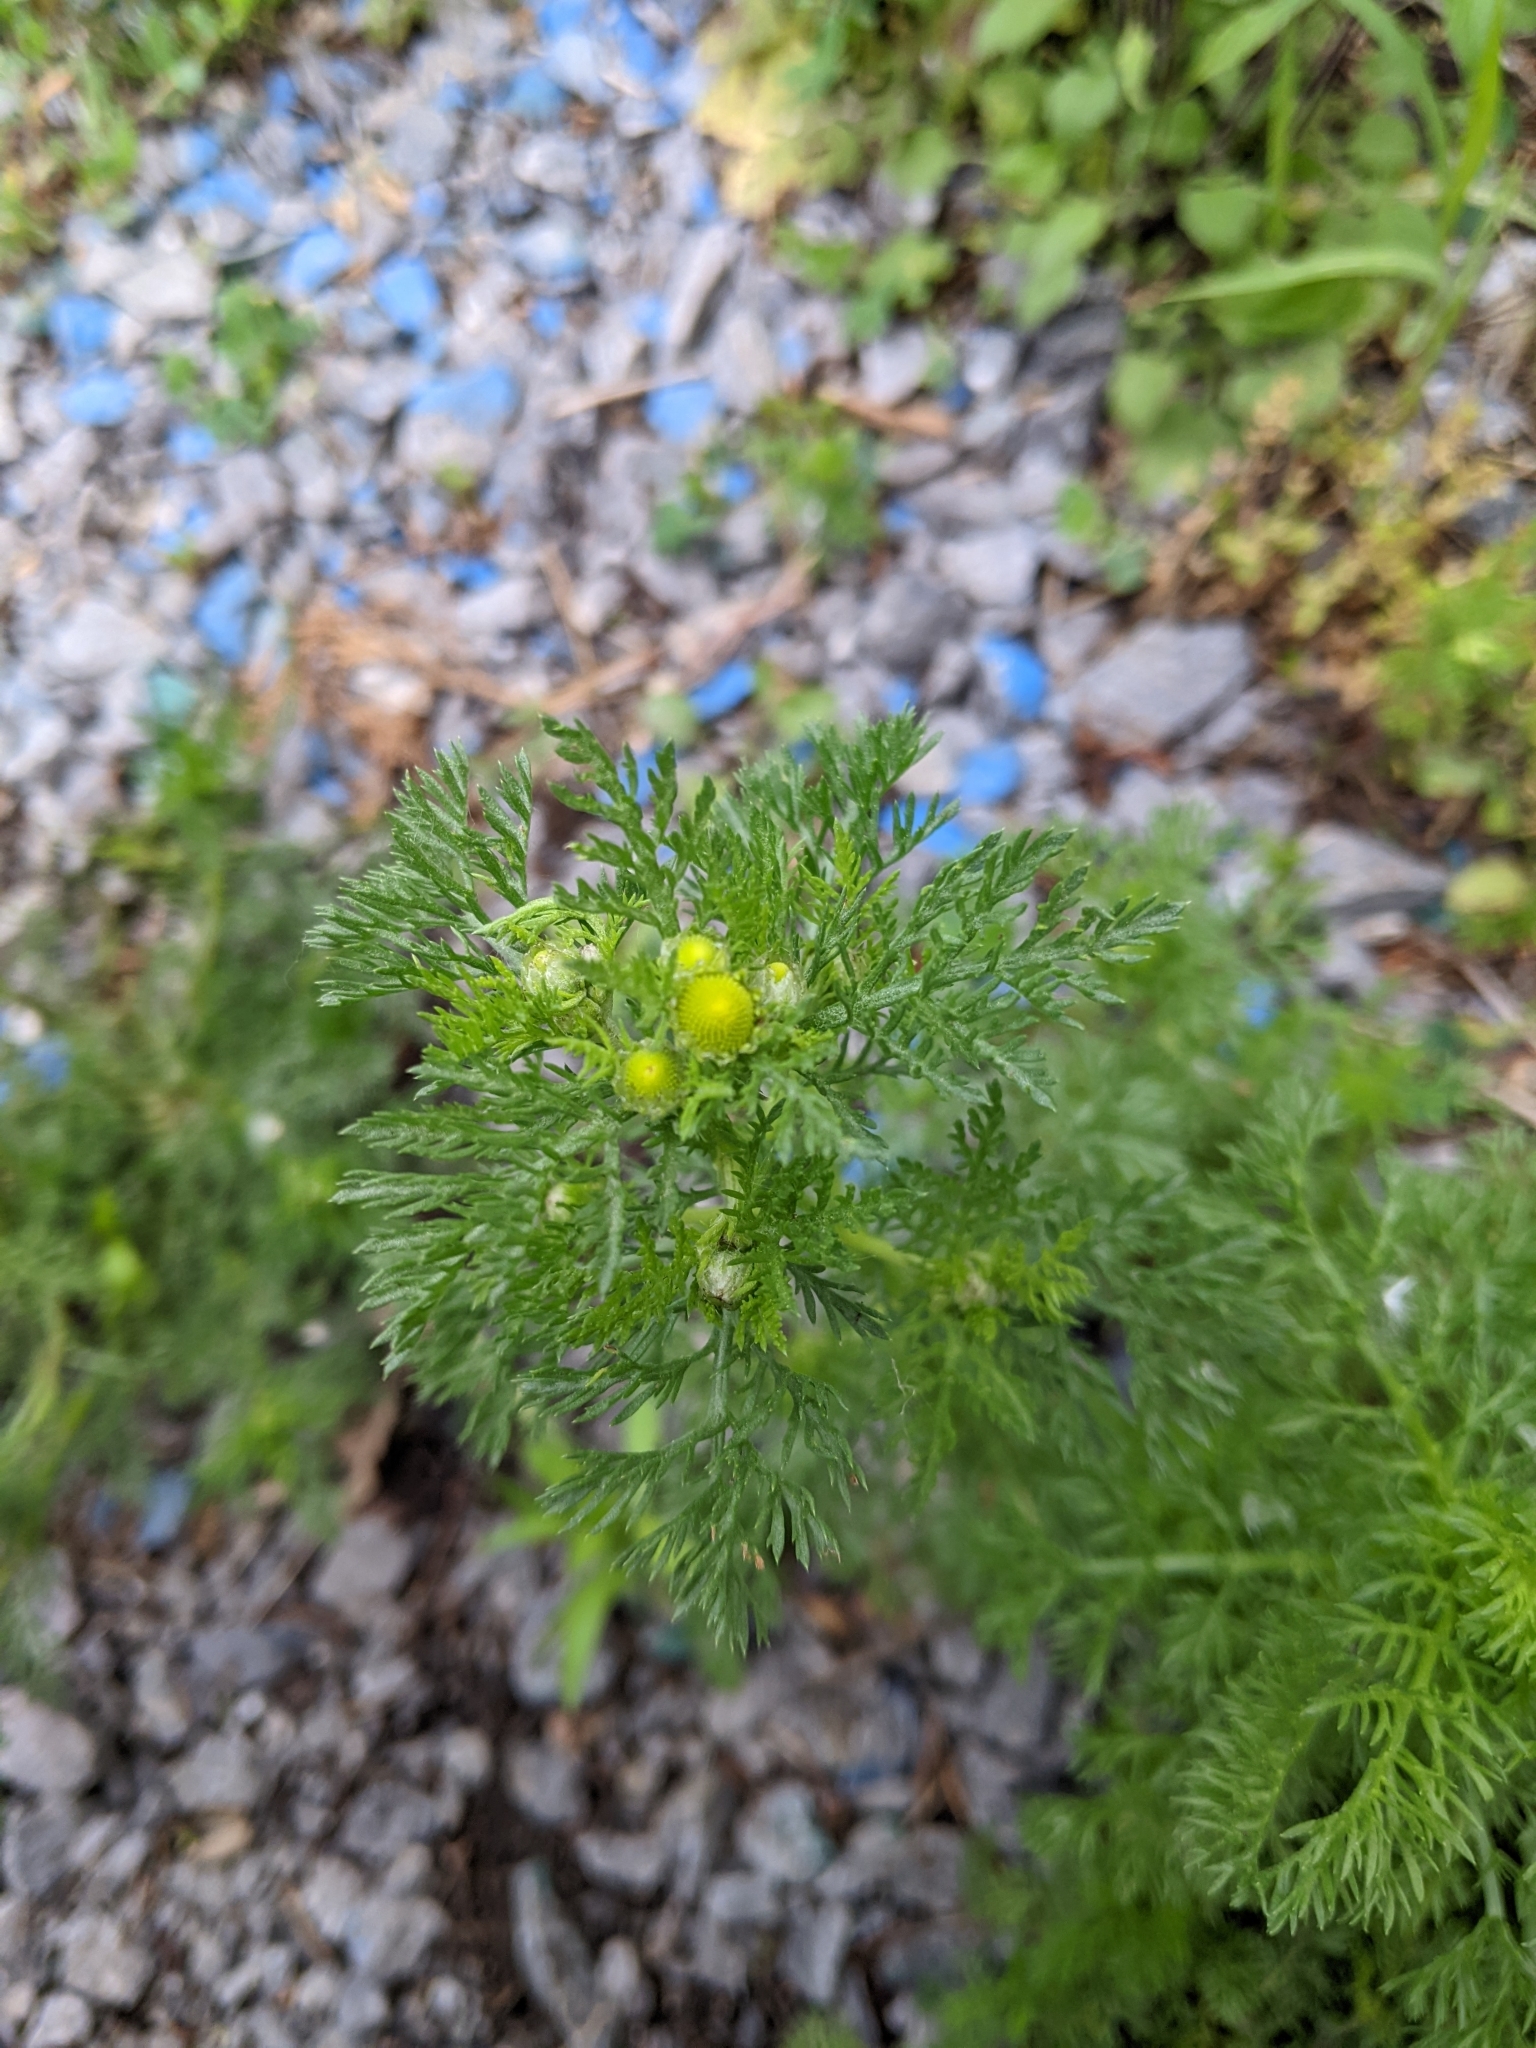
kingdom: Plantae
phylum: Tracheophyta
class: Magnoliopsida
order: Asterales
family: Asteraceae
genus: Matricaria
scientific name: Matricaria discoidea
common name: Disc mayweed
